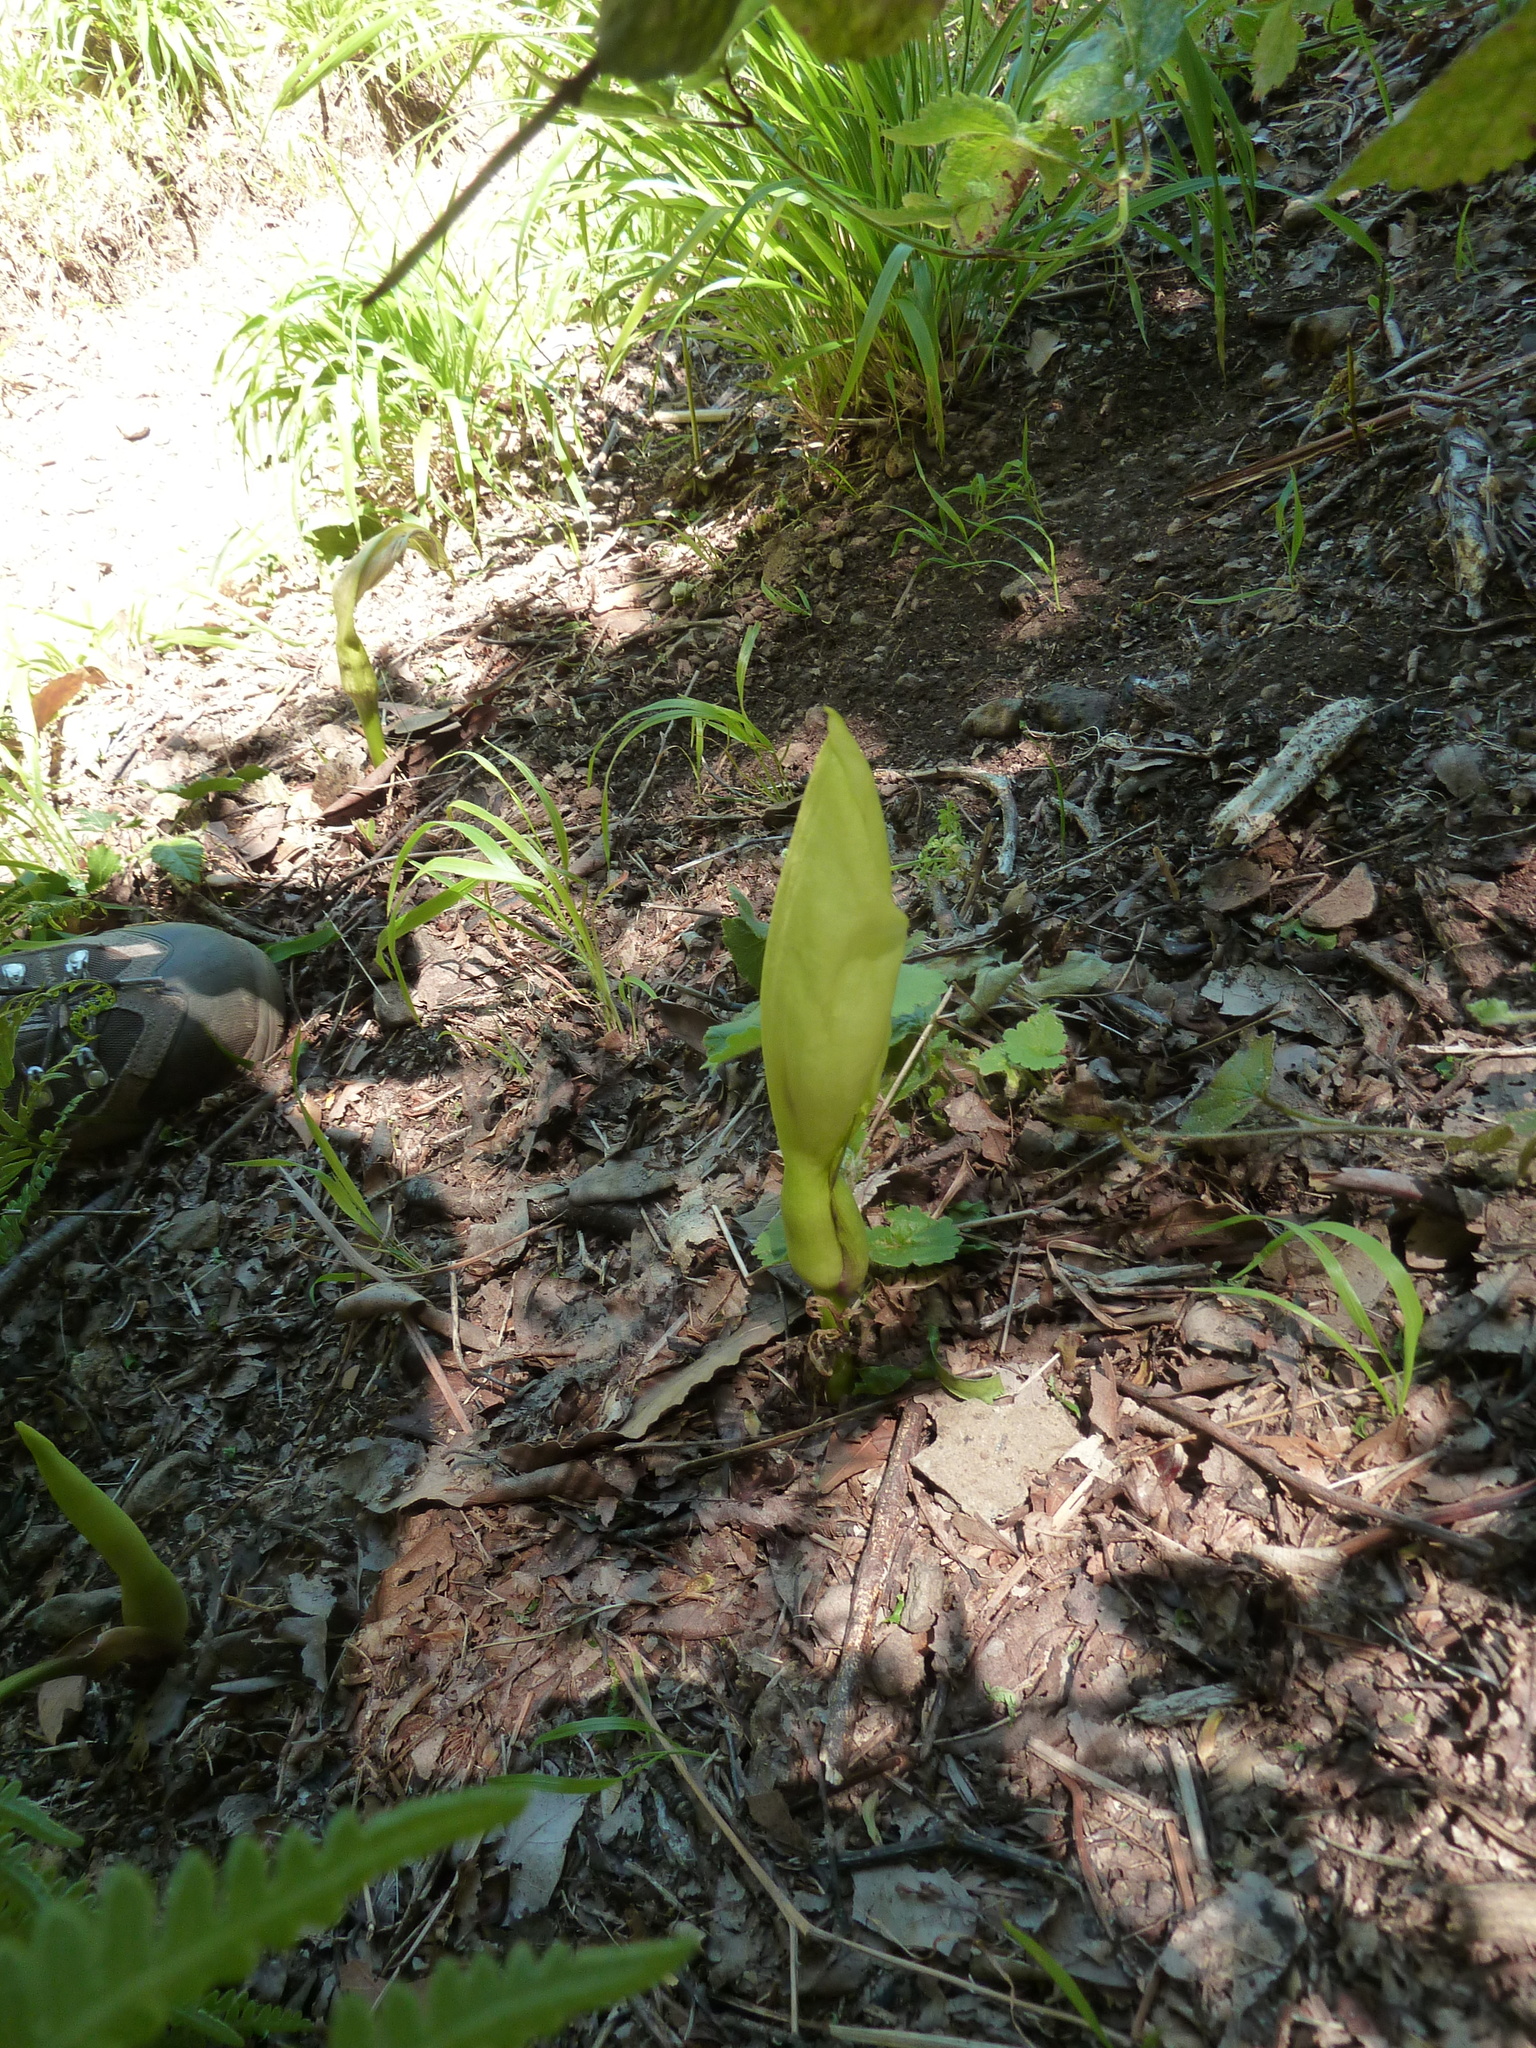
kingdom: Plantae
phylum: Tracheophyta
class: Liliopsida
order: Alismatales
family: Araceae
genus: Arum
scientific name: Arum italicum
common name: Italian lords-and-ladies
